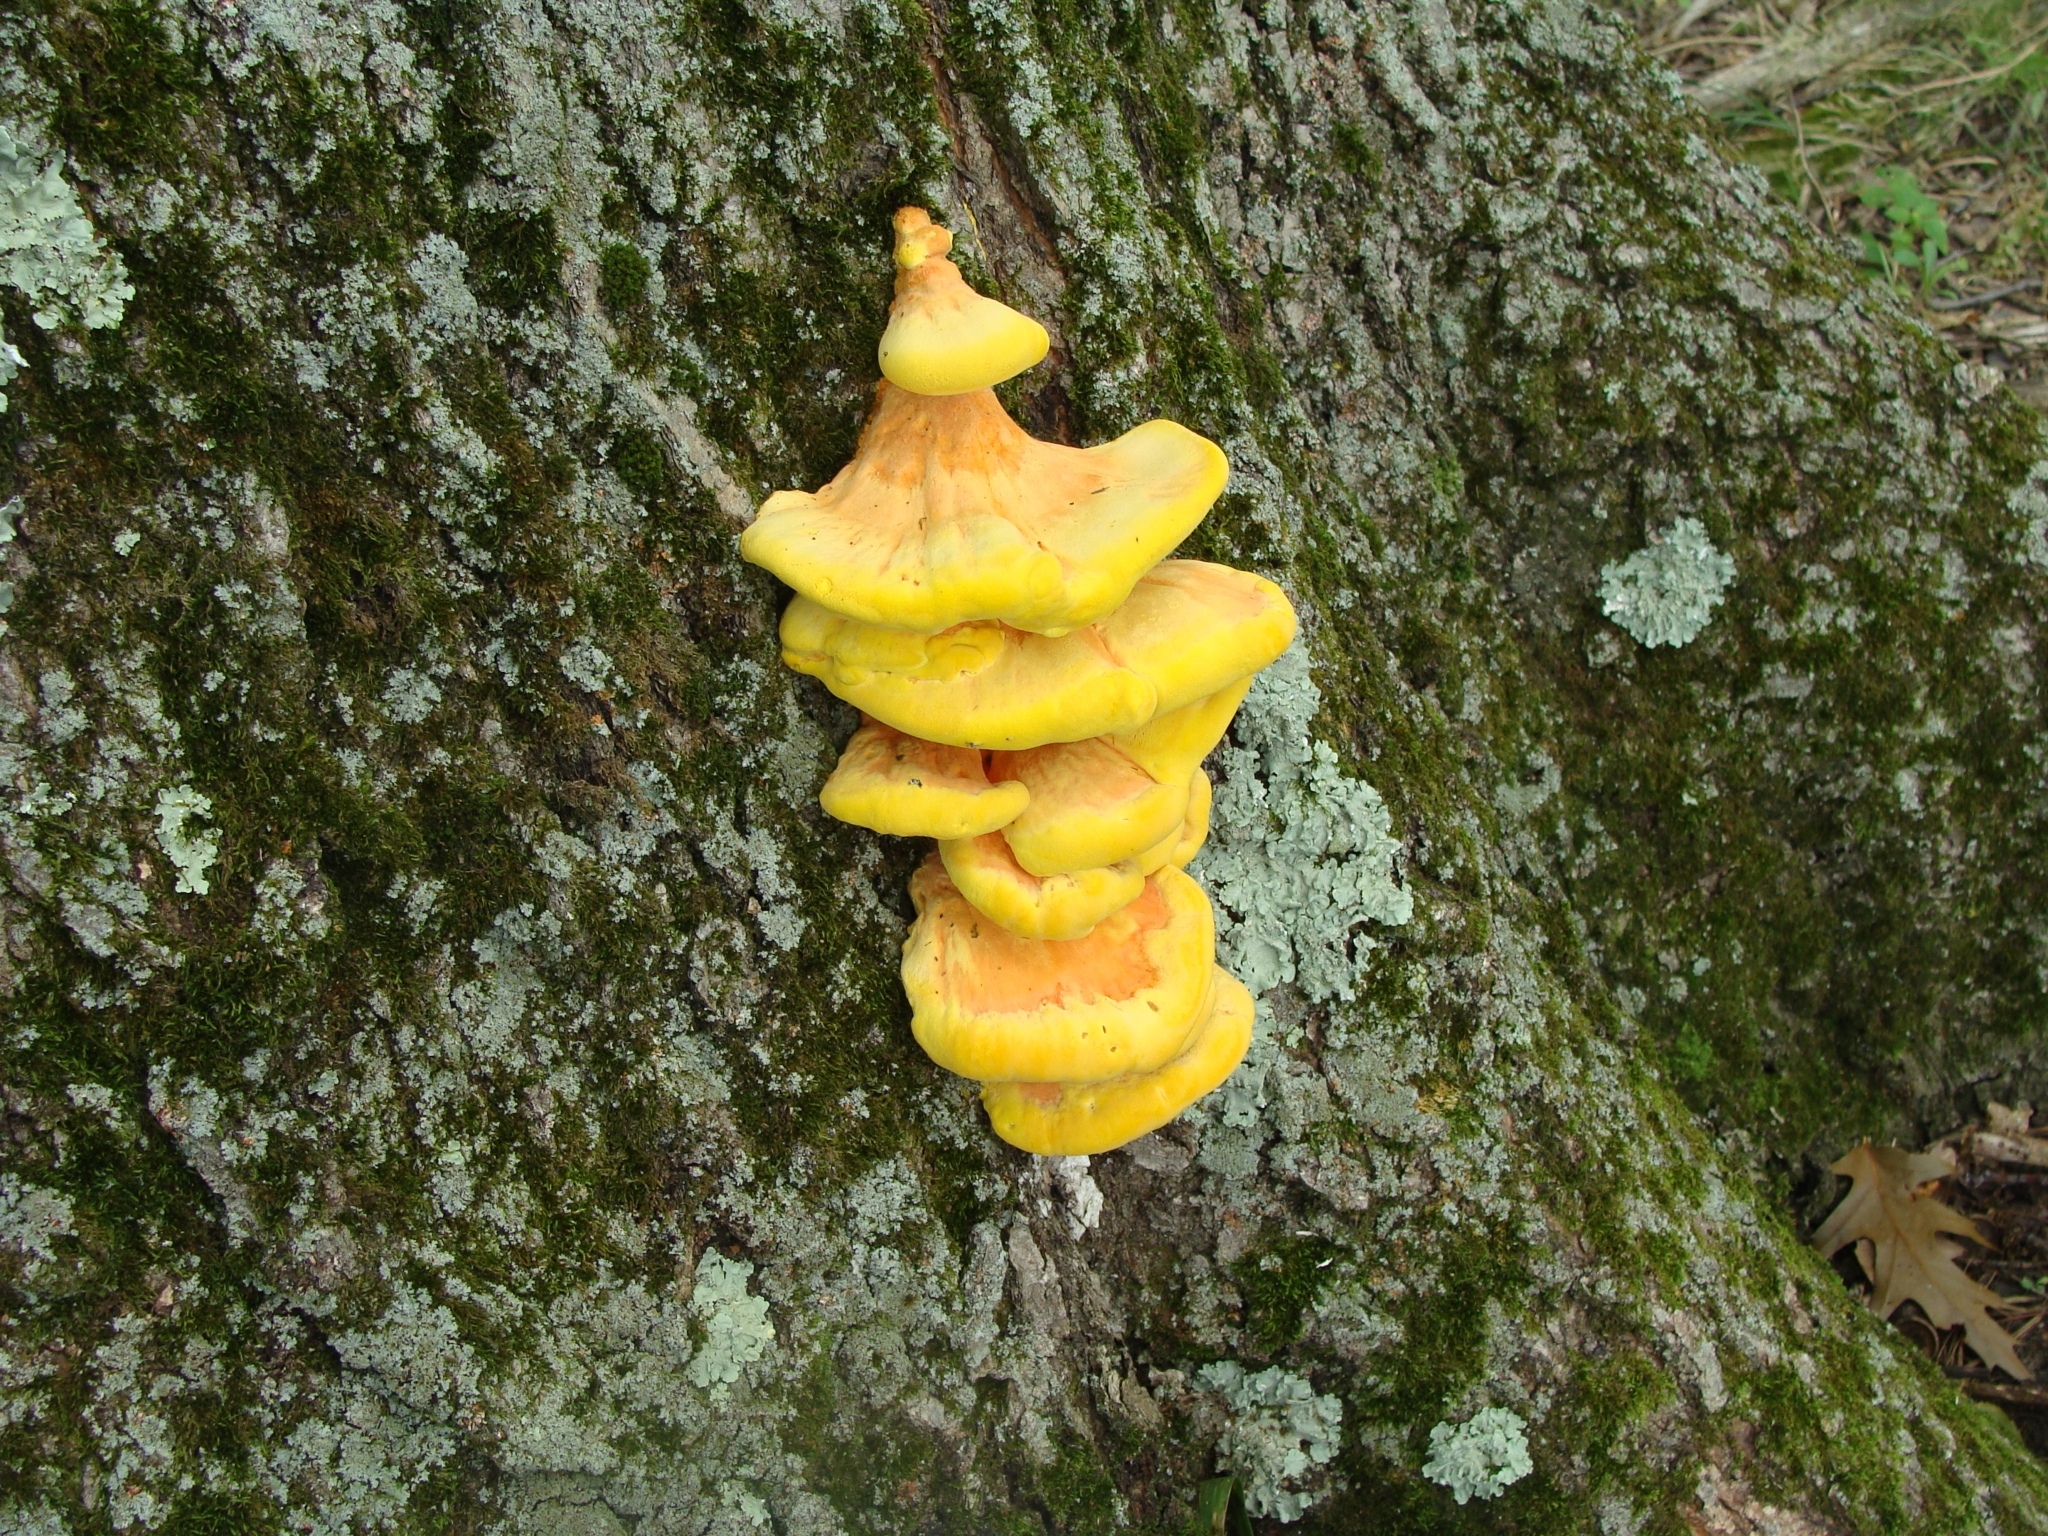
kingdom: Fungi
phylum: Basidiomycota
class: Agaricomycetes
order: Polyporales
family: Laetiporaceae
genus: Laetiporus
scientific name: Laetiporus sulphureus
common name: Chicken of the woods
